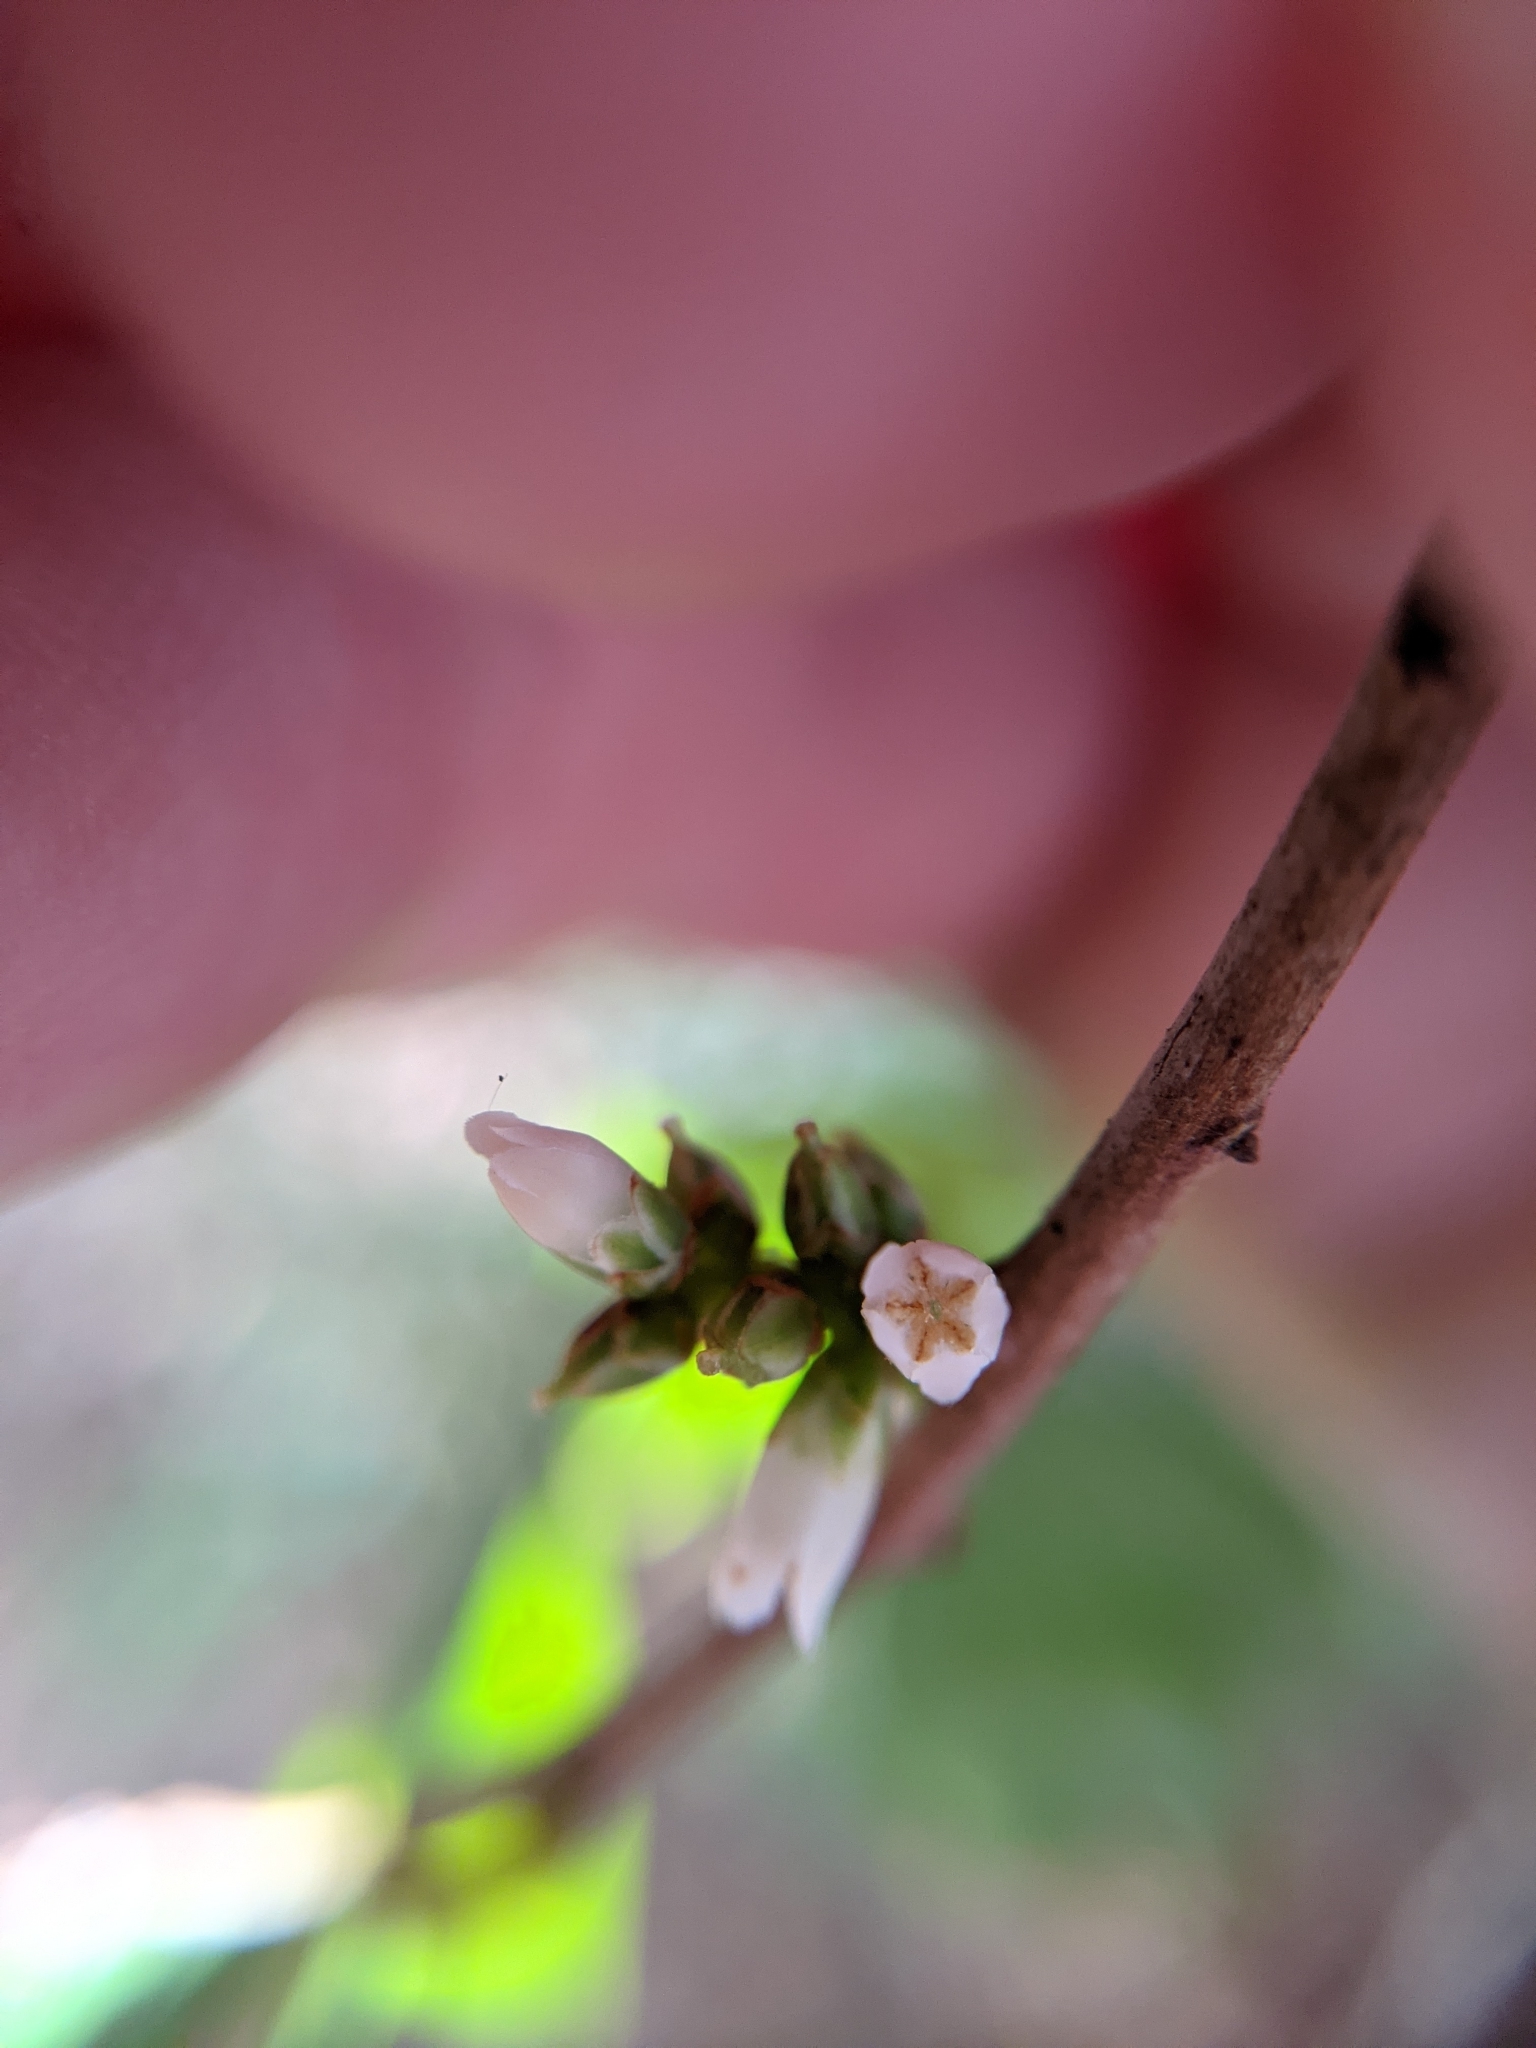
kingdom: Plantae
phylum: Tracheophyta
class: Magnoliopsida
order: Ericales
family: Ericaceae
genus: Trochocarpa
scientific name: Trochocarpa laurina
